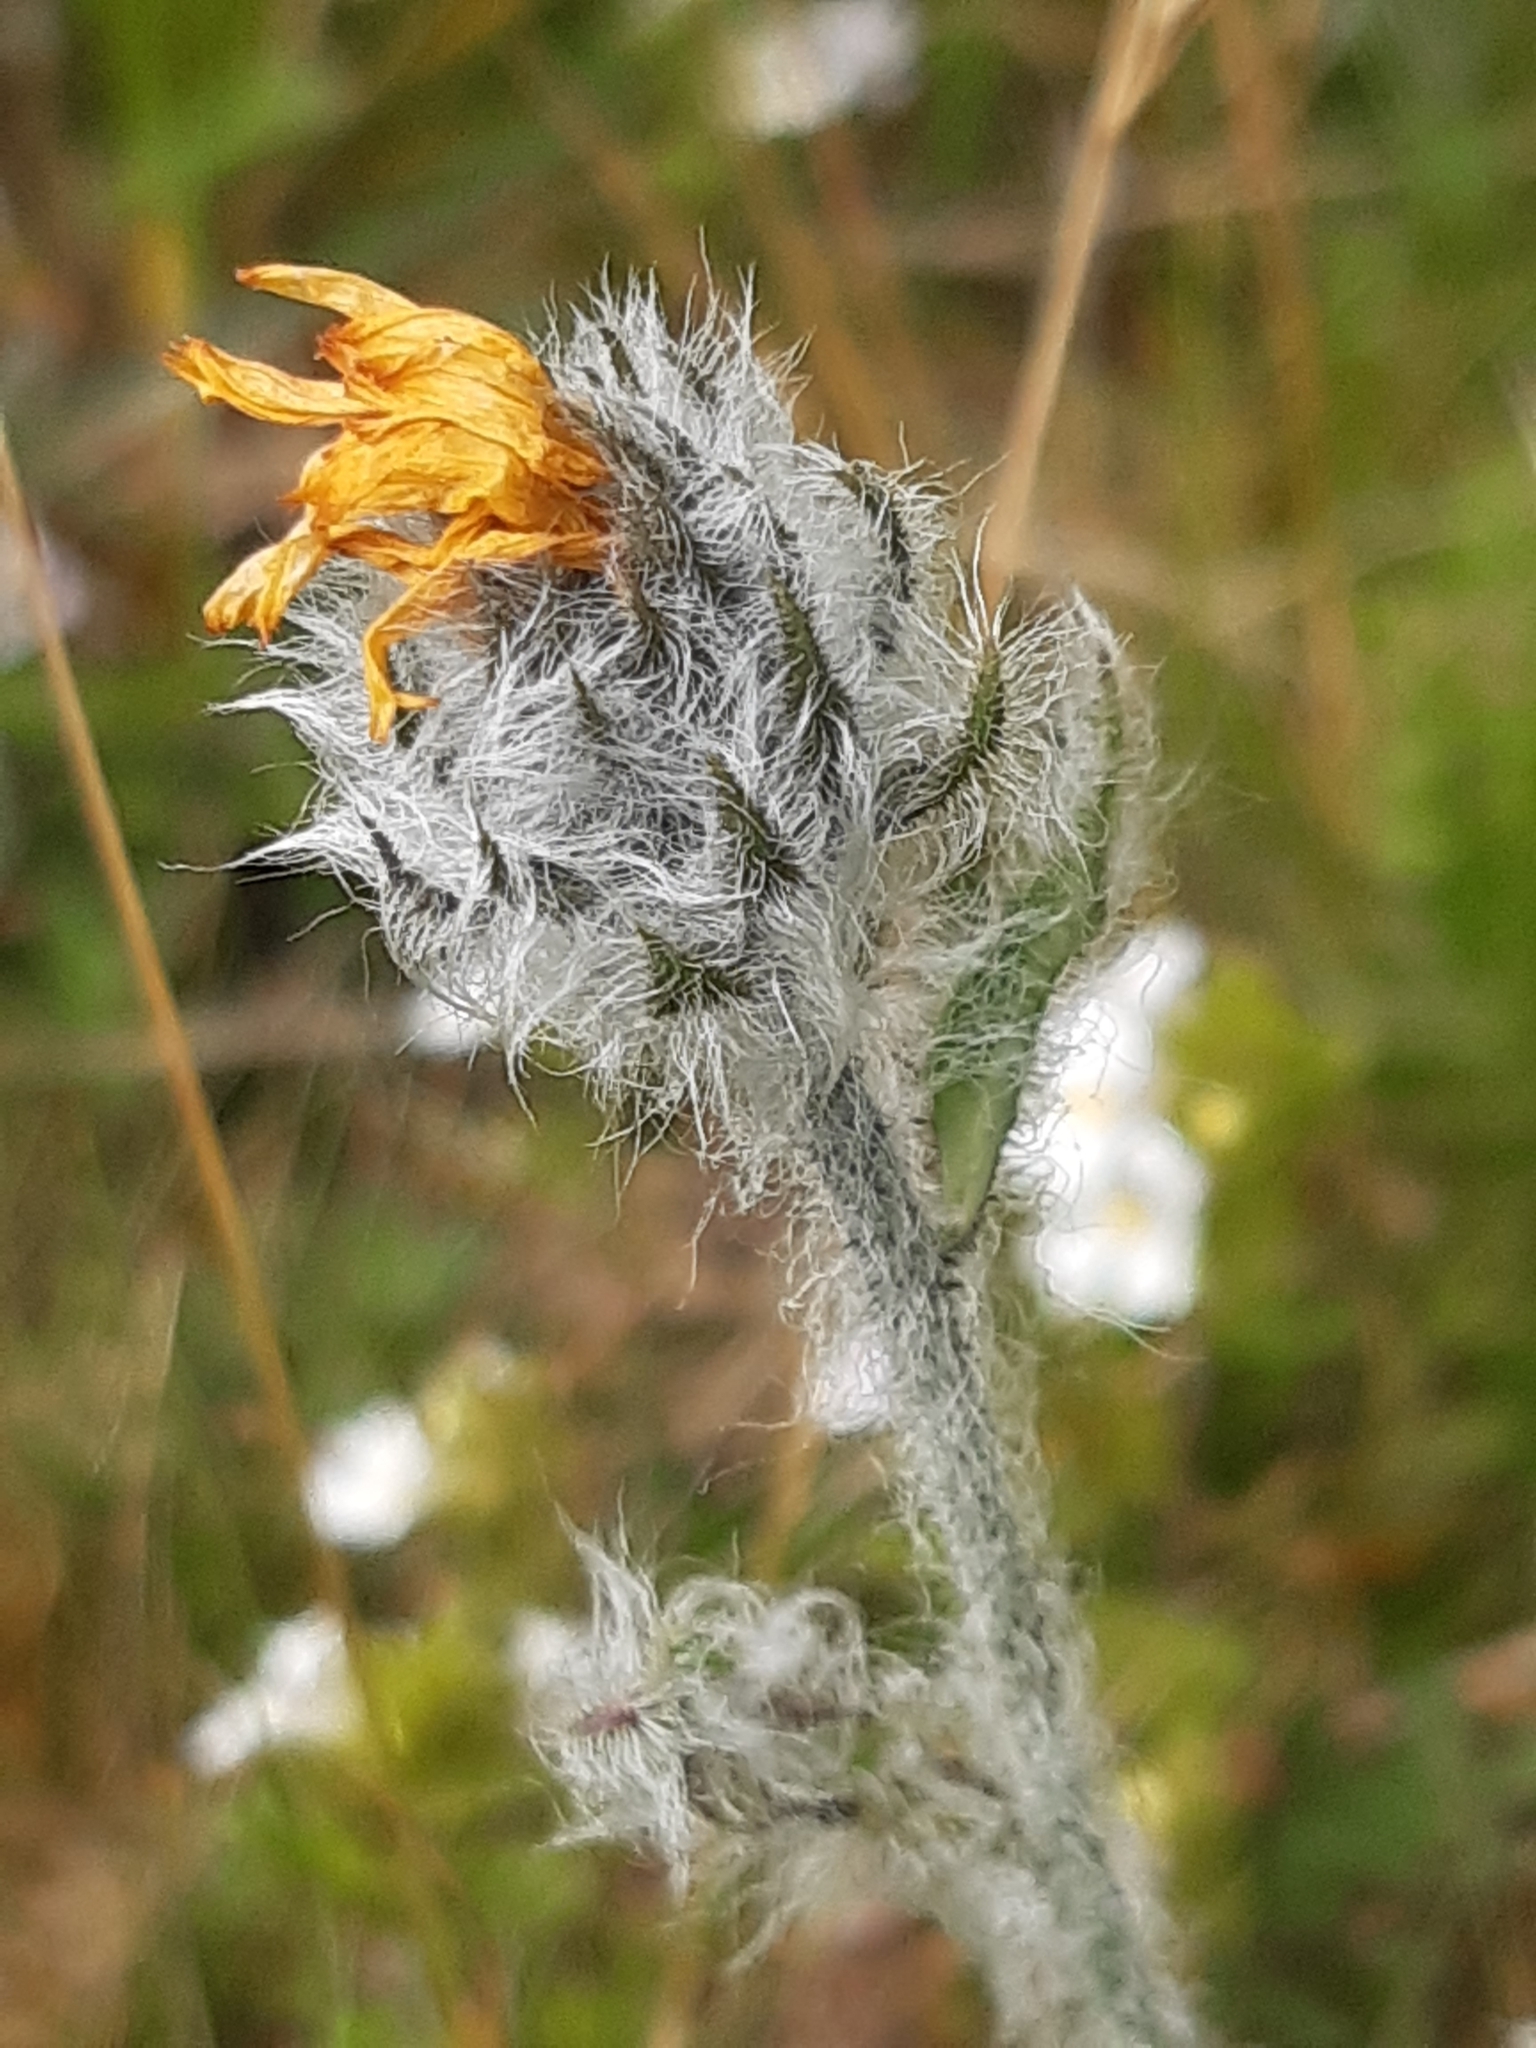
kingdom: Plantae
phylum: Tracheophyta
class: Magnoliopsida
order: Asterales
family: Asteraceae
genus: Hieracium
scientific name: Hieracium villosum
